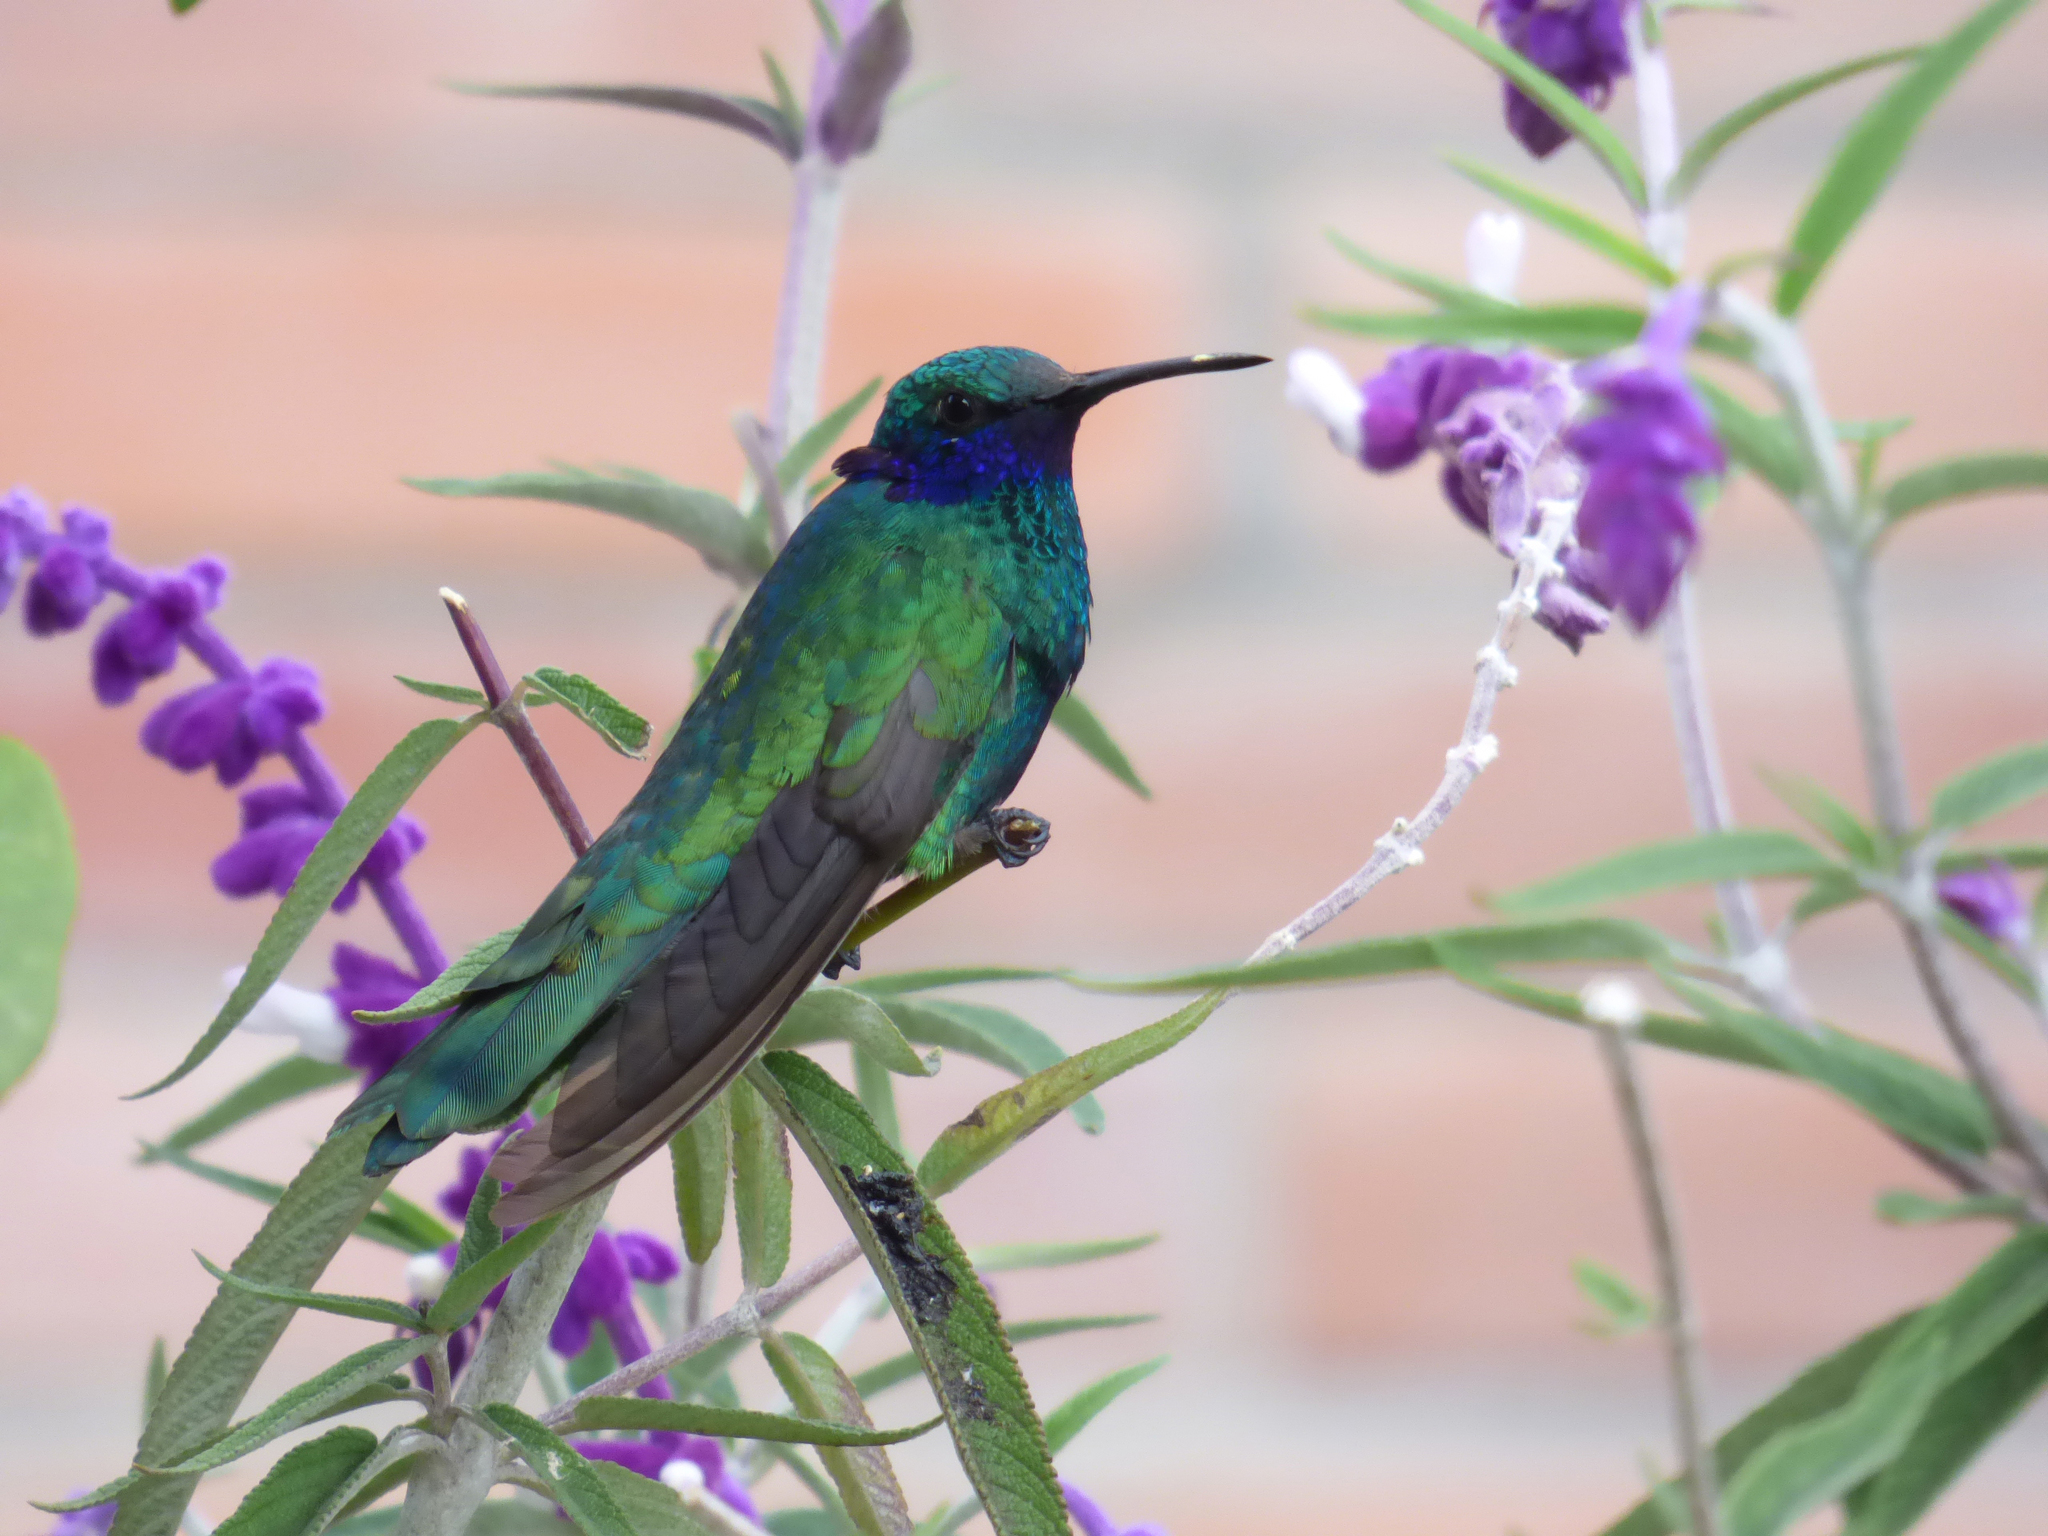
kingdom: Animalia
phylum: Chordata
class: Aves
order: Apodiformes
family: Trochilidae
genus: Colibri
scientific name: Colibri coruscans
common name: Sparkling violetear
